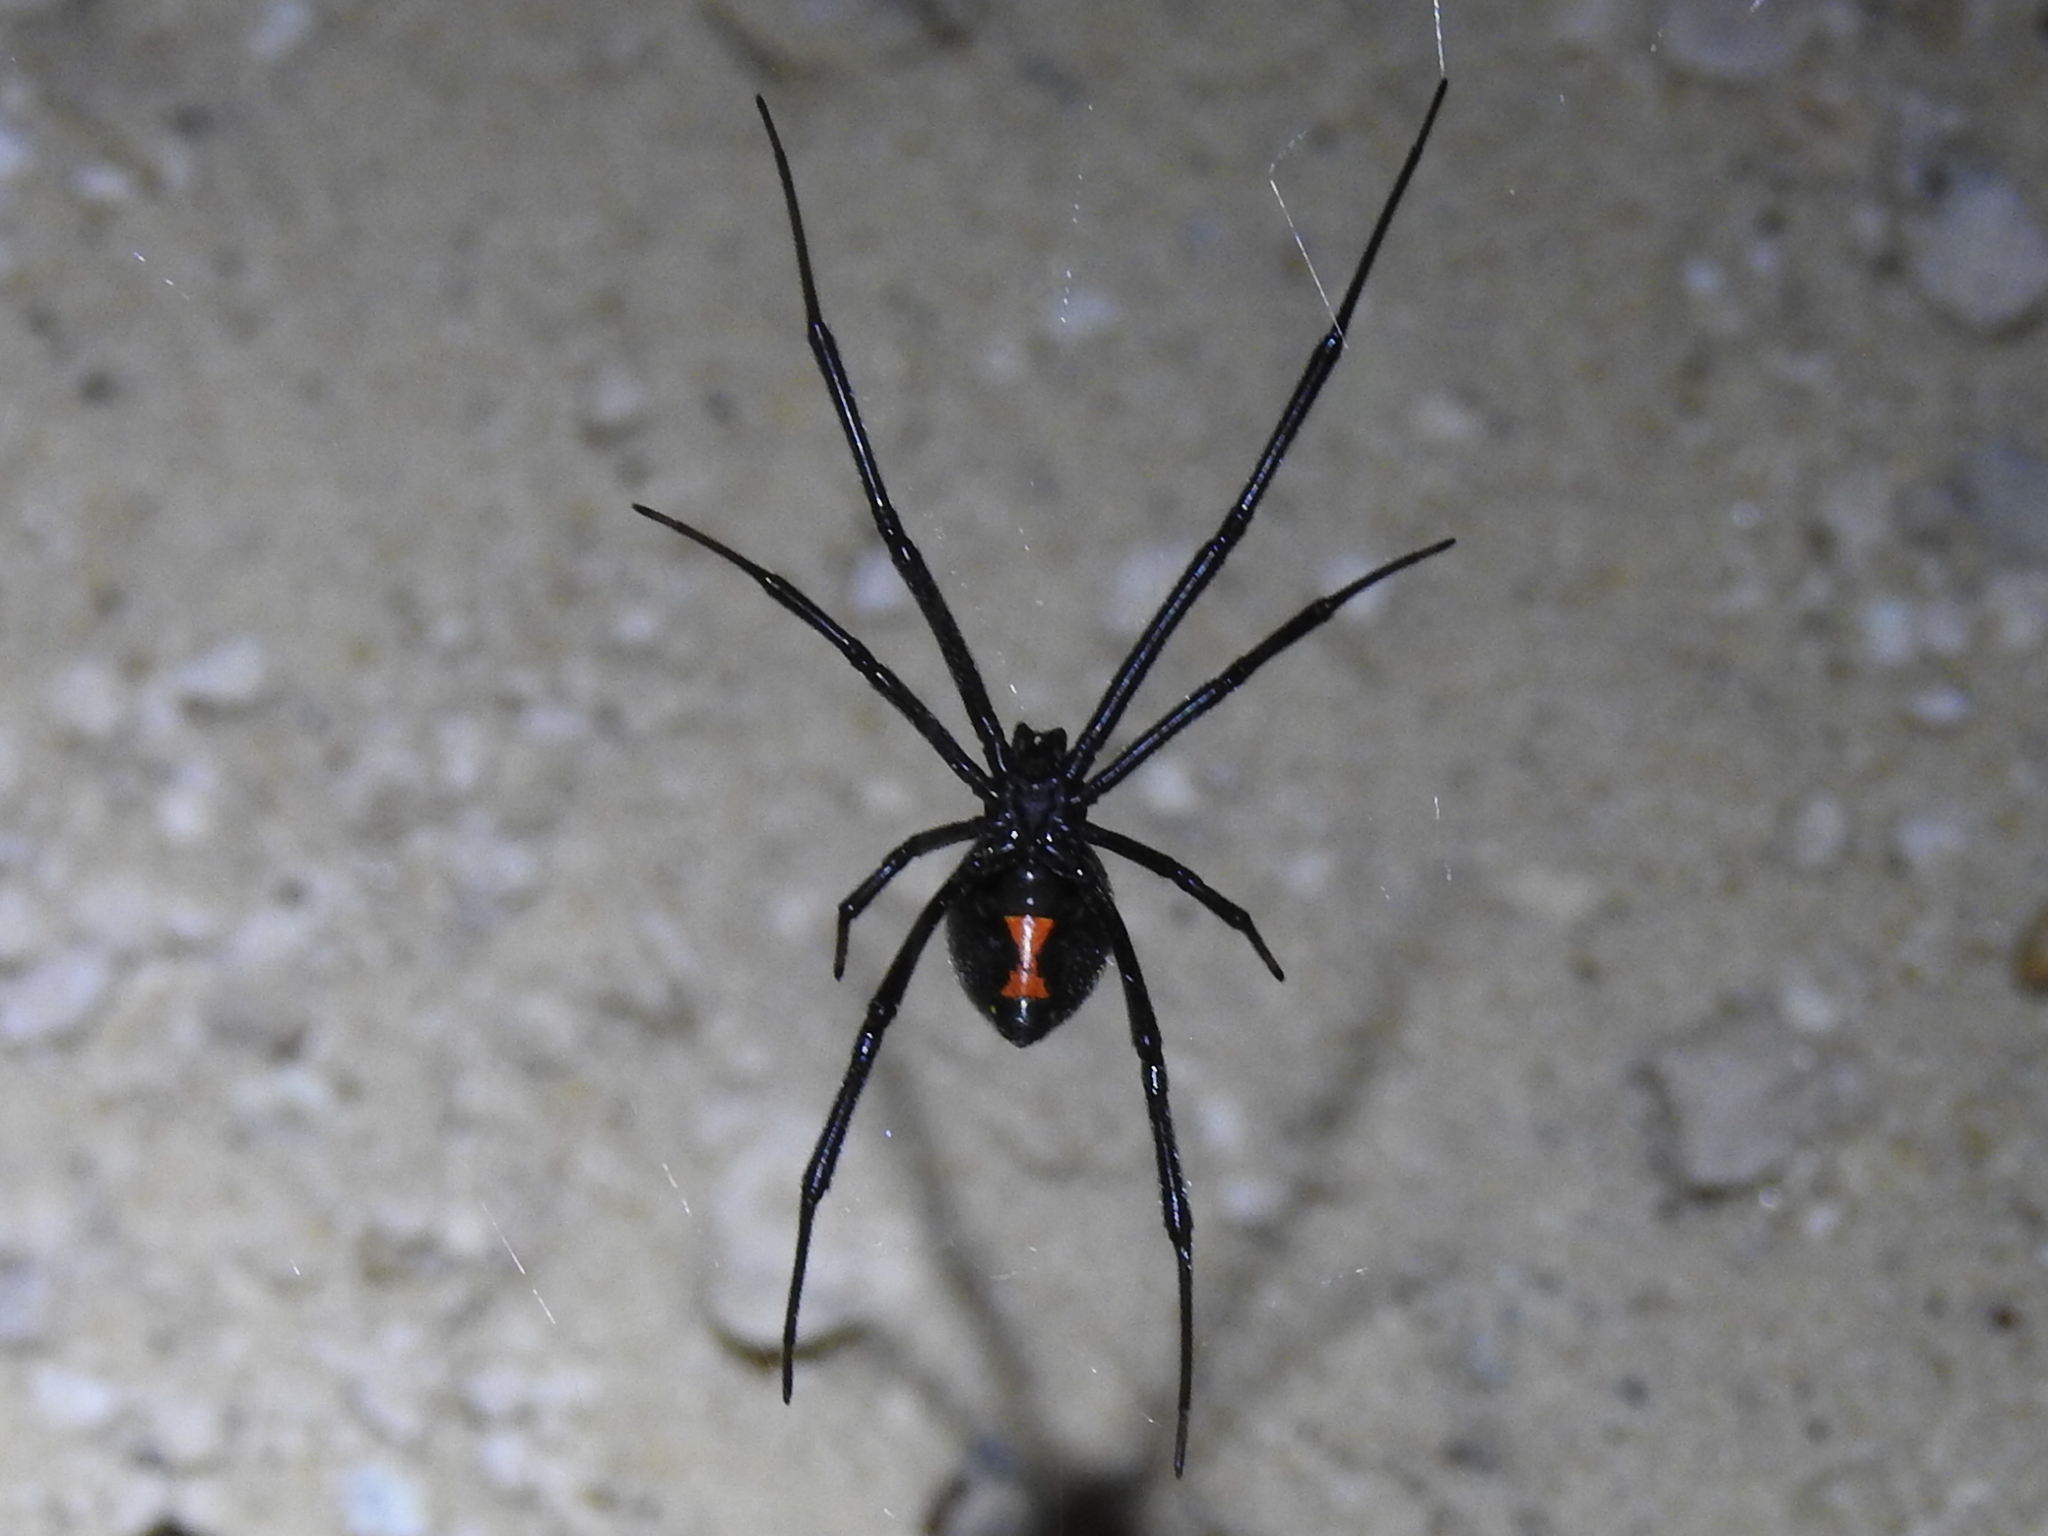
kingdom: Animalia
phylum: Arthropoda
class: Arachnida
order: Araneae
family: Theridiidae
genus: Latrodectus
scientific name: Latrodectus hesperus
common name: Western black widow
